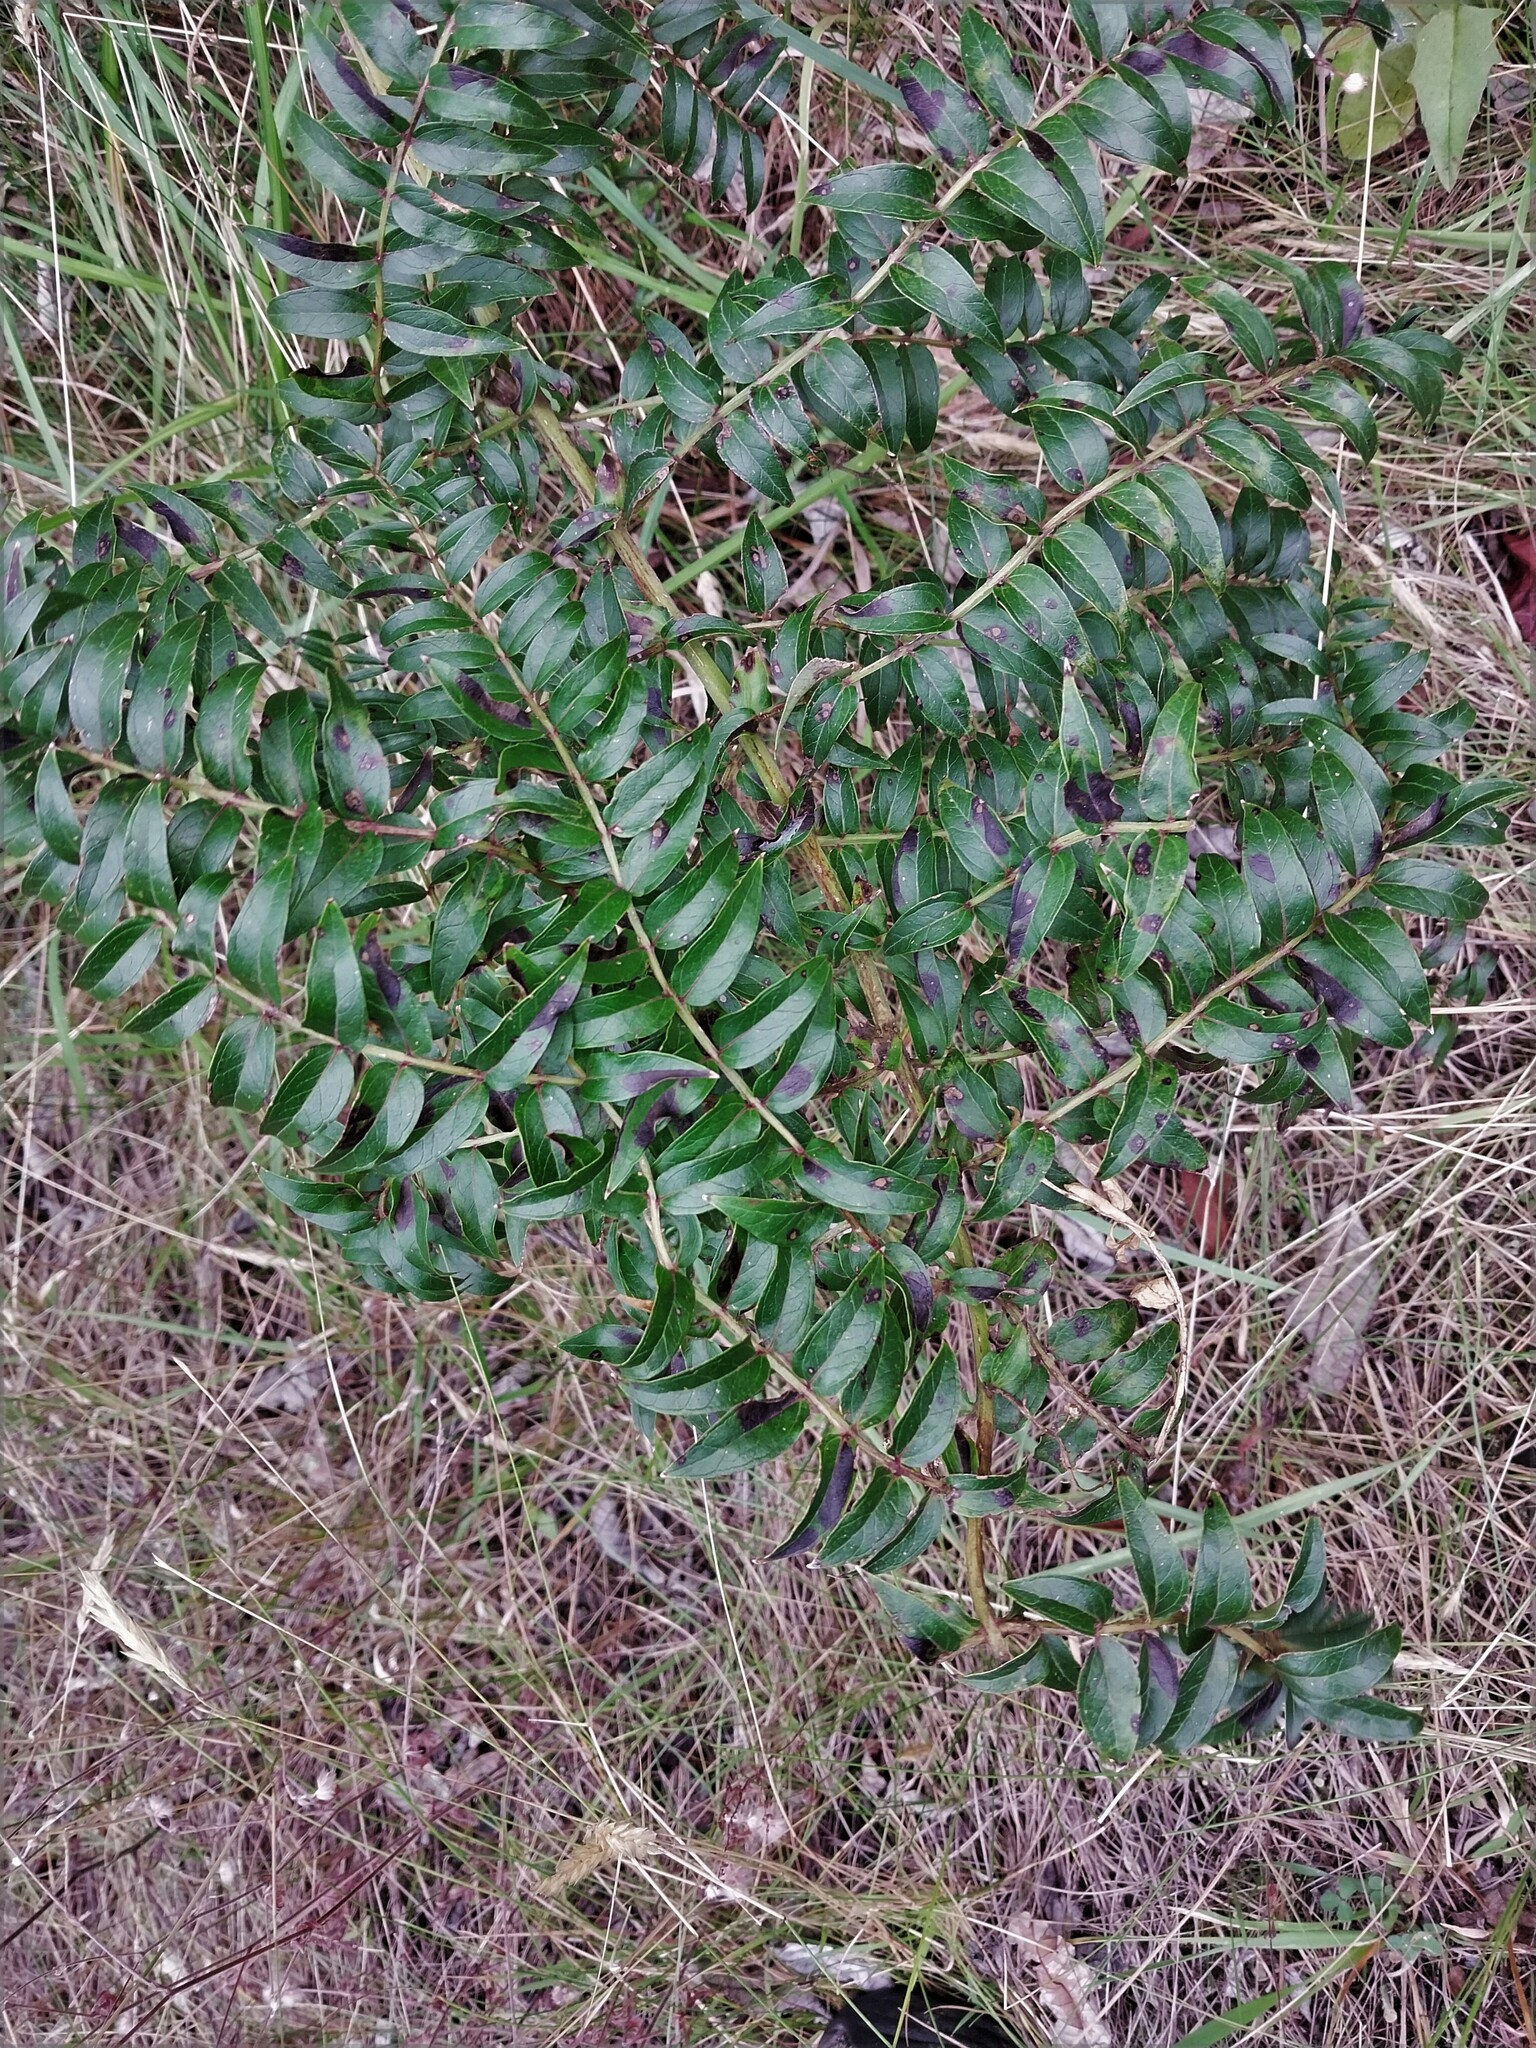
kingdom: Plantae
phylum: Tracheophyta
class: Magnoliopsida
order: Cucurbitales
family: Coriariaceae
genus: Coriaria
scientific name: Coriaria sarmentosa
